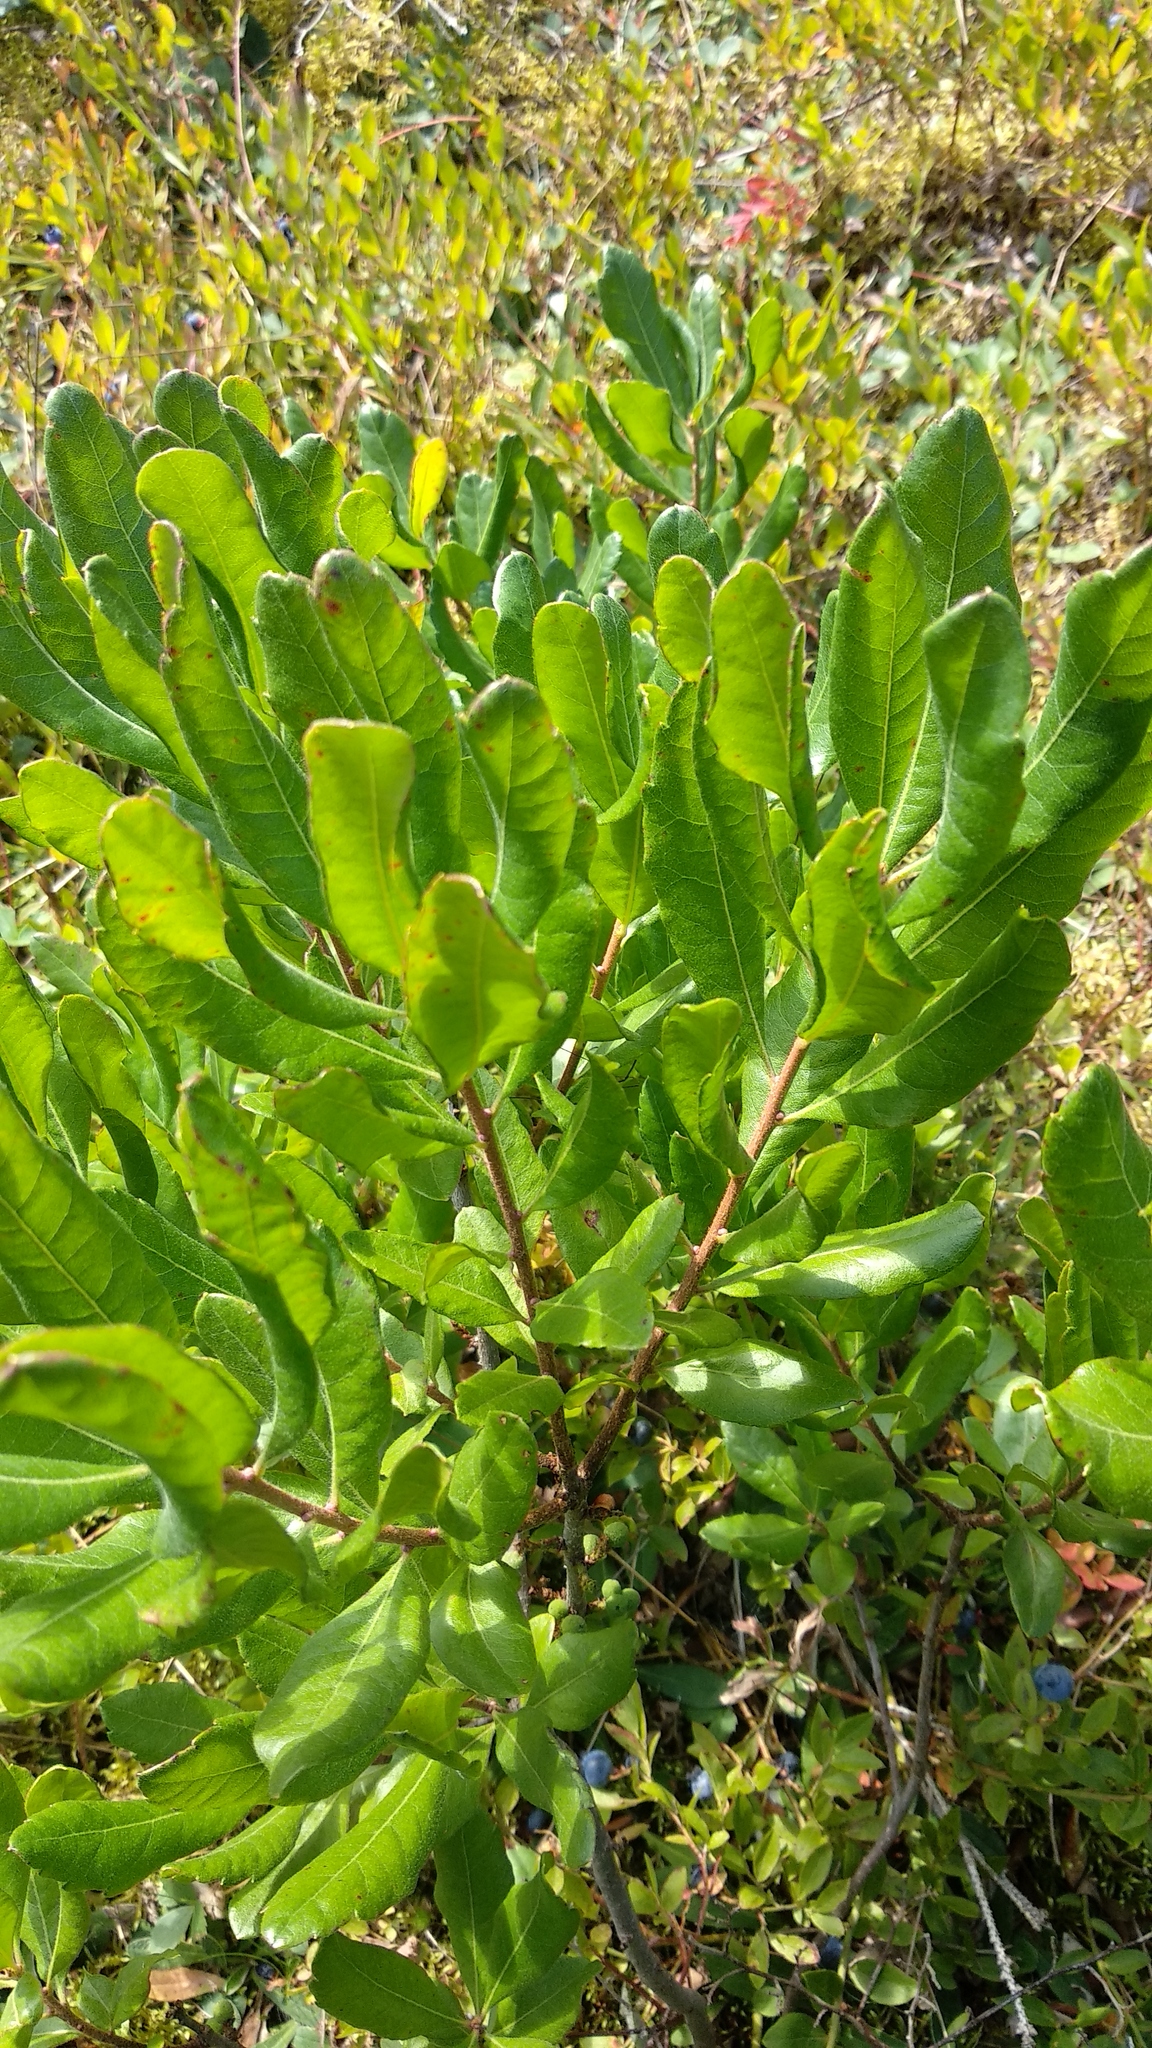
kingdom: Plantae
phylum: Tracheophyta
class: Magnoliopsida
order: Fagales
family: Myricaceae
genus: Morella
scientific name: Morella pensylvanica
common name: Northern bayberry
